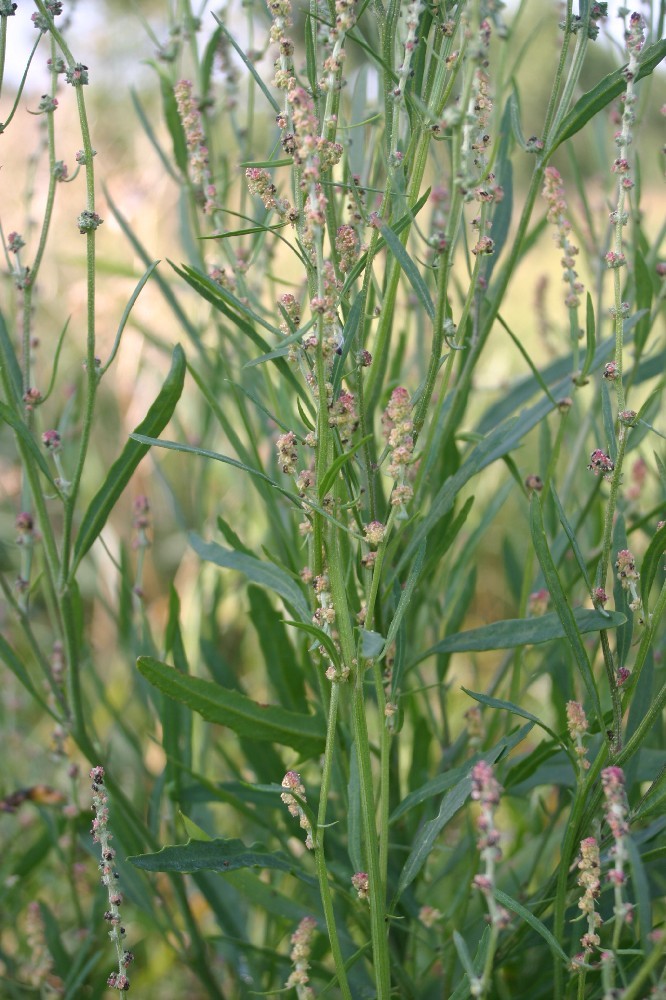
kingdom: Plantae
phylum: Tracheophyta
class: Magnoliopsida
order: Caryophyllales
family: Amaranthaceae
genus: Atriplex
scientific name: Atriplex littoralis
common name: Grass-leaved orache
